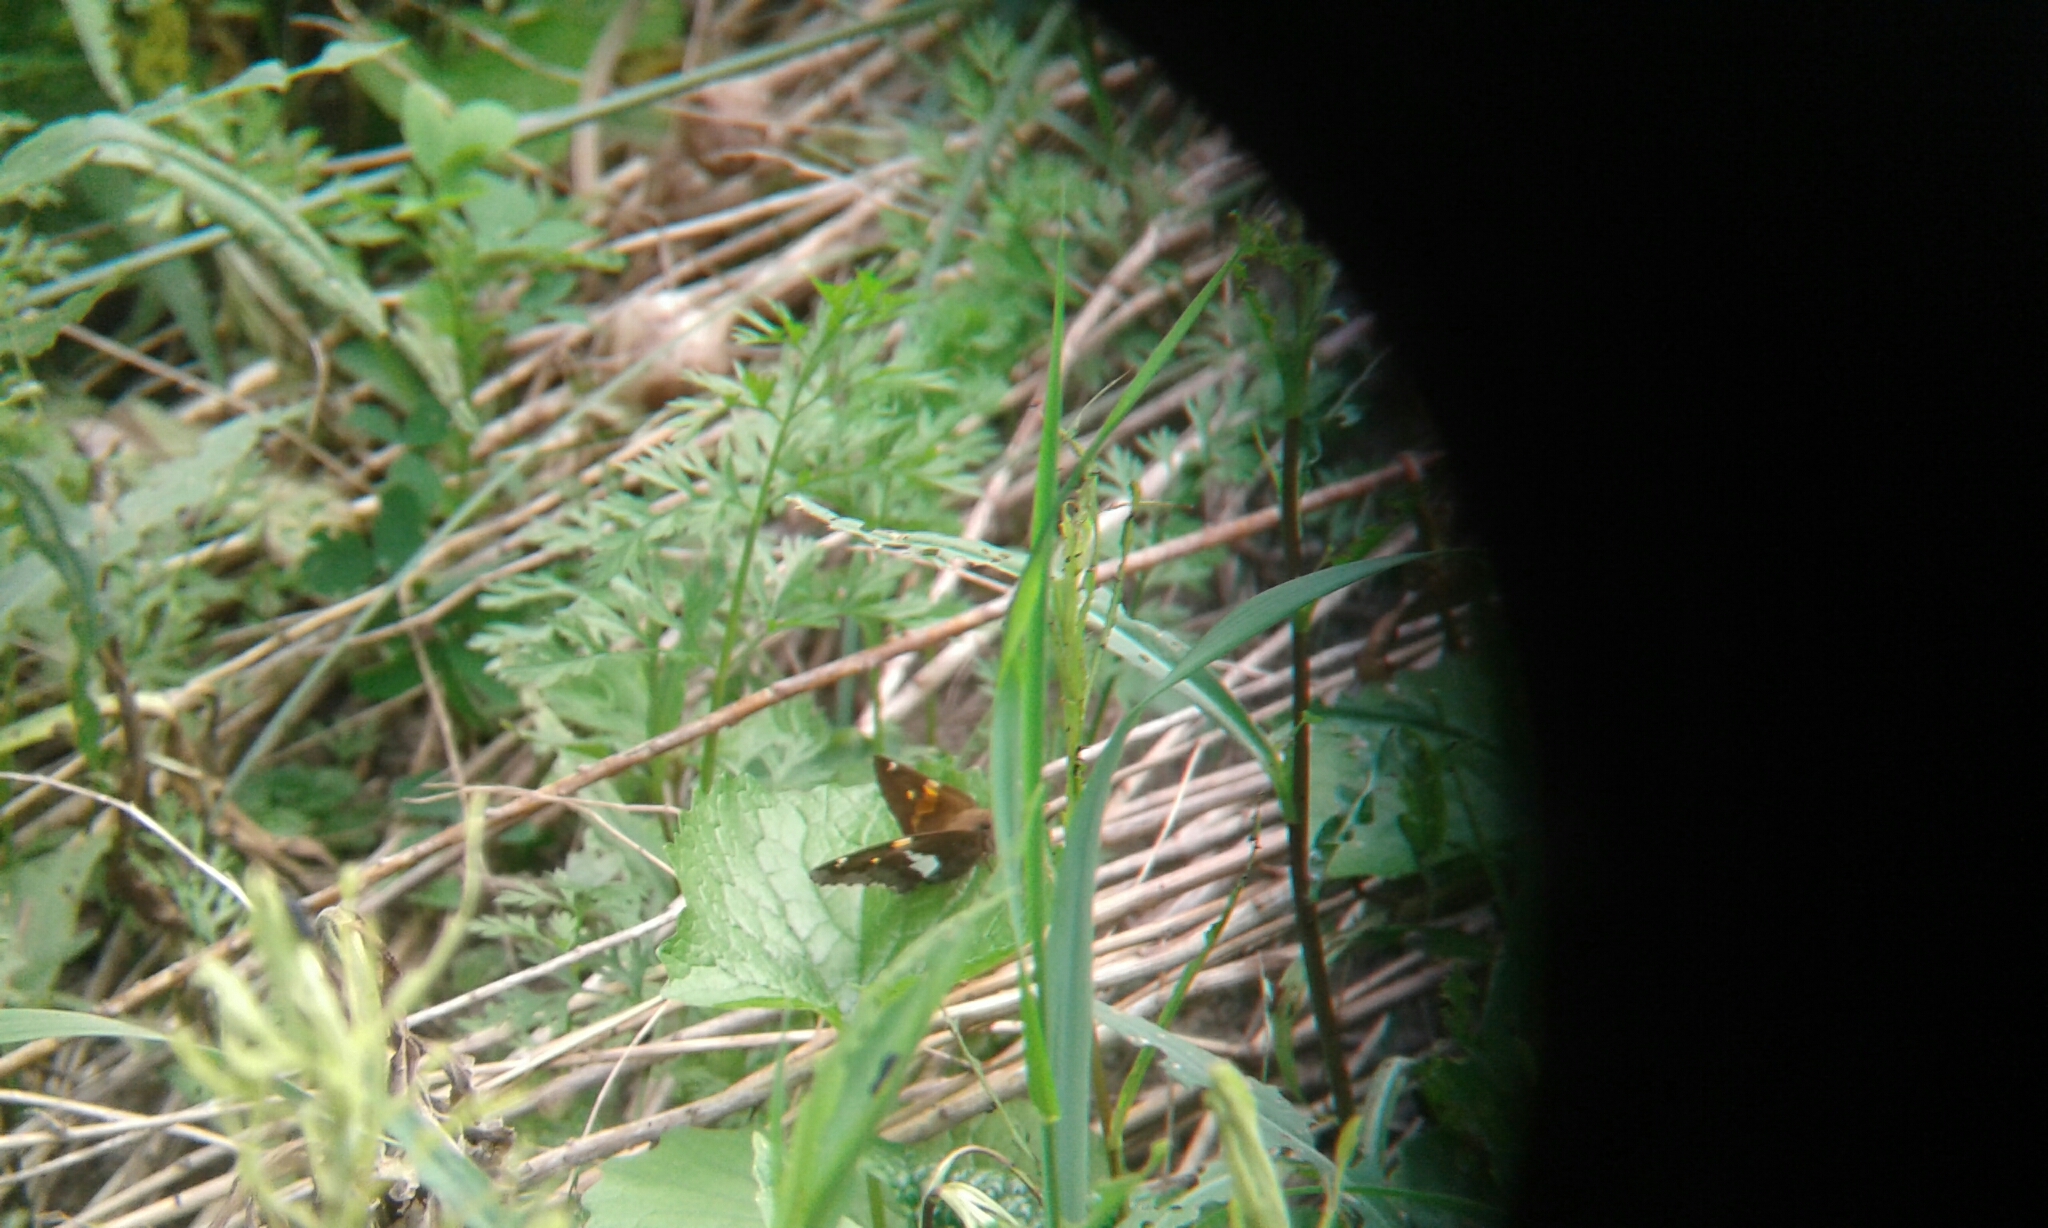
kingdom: Animalia
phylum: Arthropoda
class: Insecta
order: Lepidoptera
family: Hesperiidae
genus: Epargyreus
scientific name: Epargyreus clarus
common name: Silver-spotted skipper
